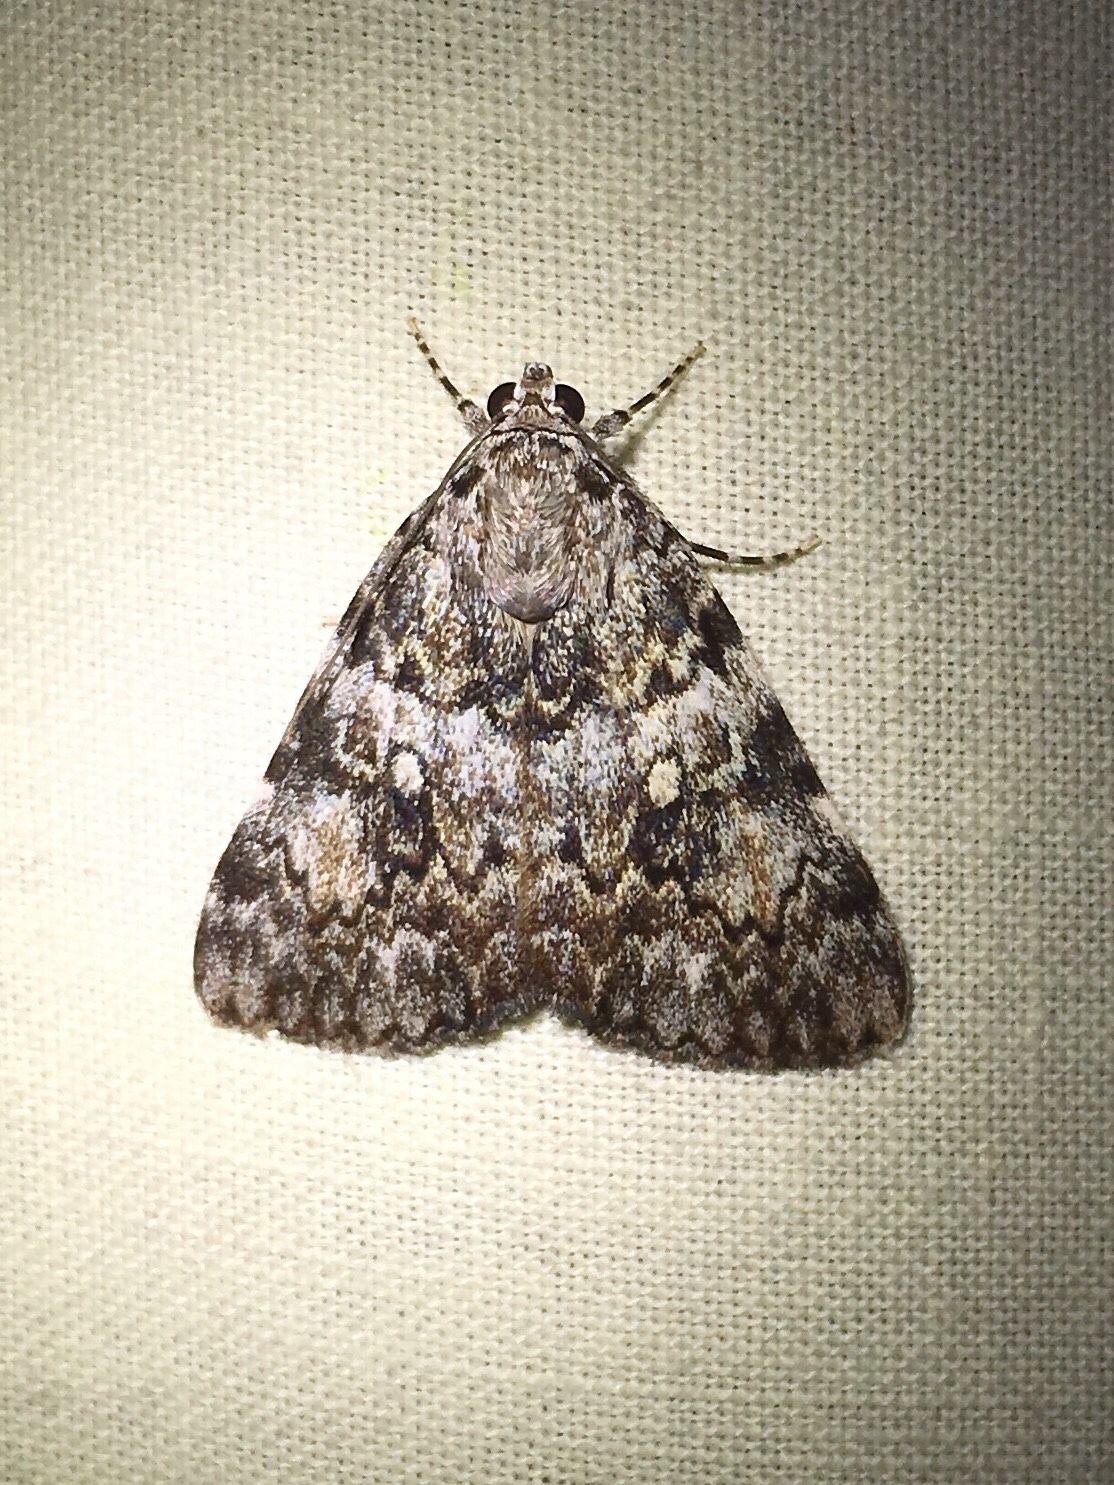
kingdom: Animalia
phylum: Arthropoda
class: Insecta
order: Lepidoptera
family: Erebidae
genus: Catocala
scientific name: Catocala lineella
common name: Little lined underwing
